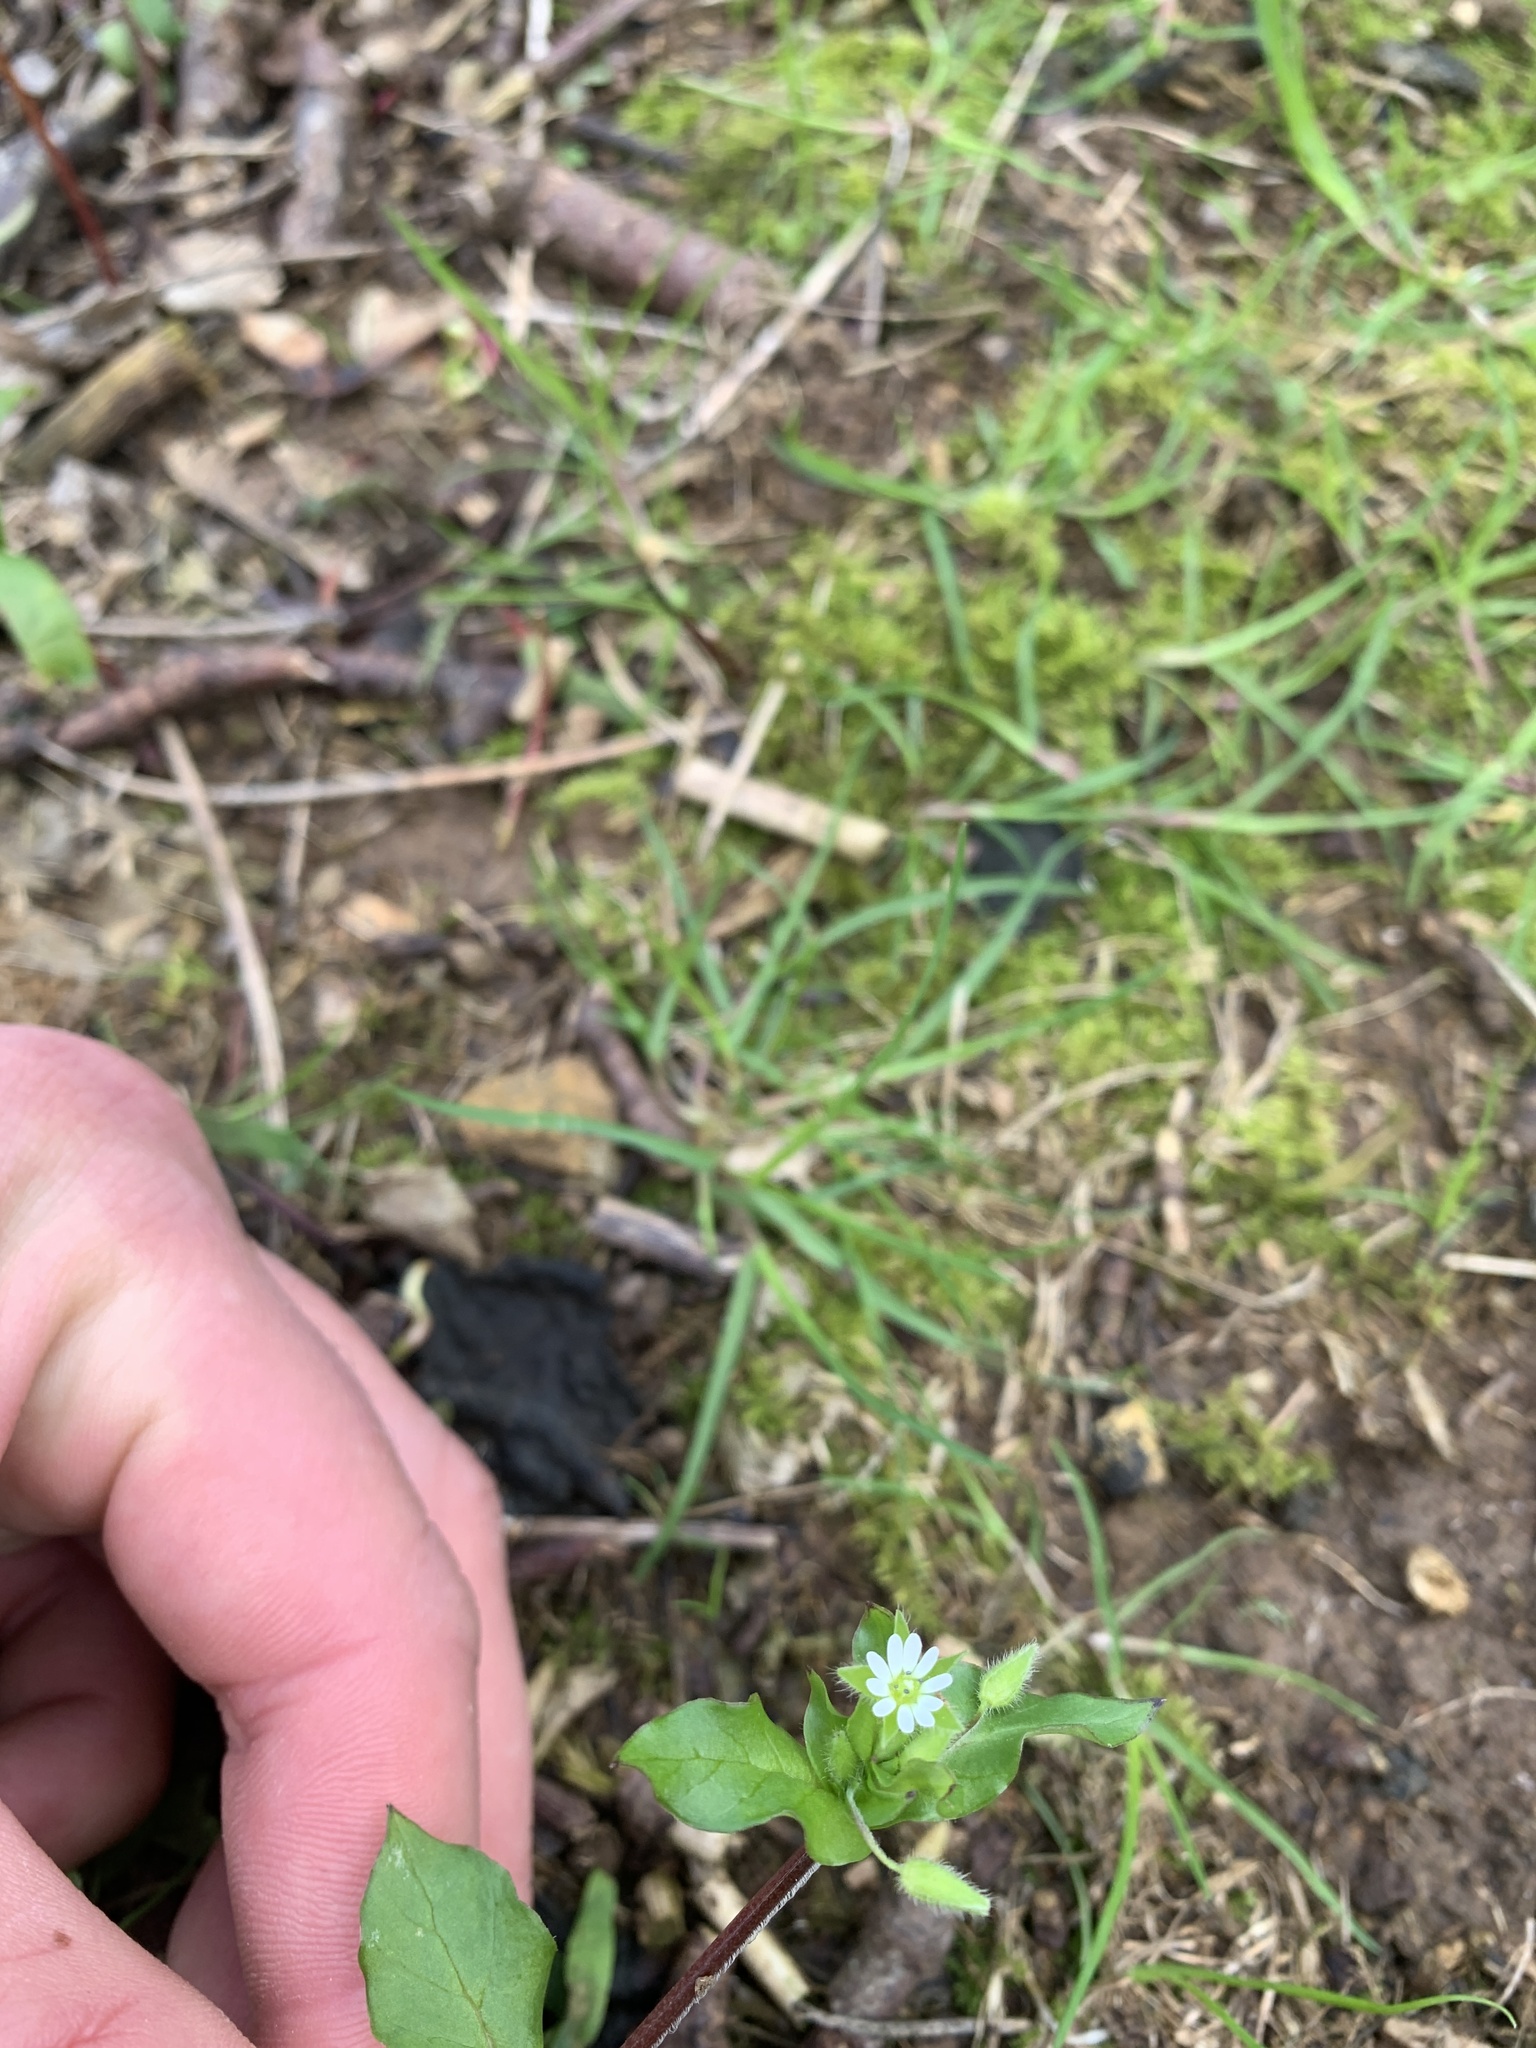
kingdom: Plantae
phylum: Tracheophyta
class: Magnoliopsida
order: Caryophyllales
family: Caryophyllaceae
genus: Stellaria
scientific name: Stellaria media
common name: Common chickweed
